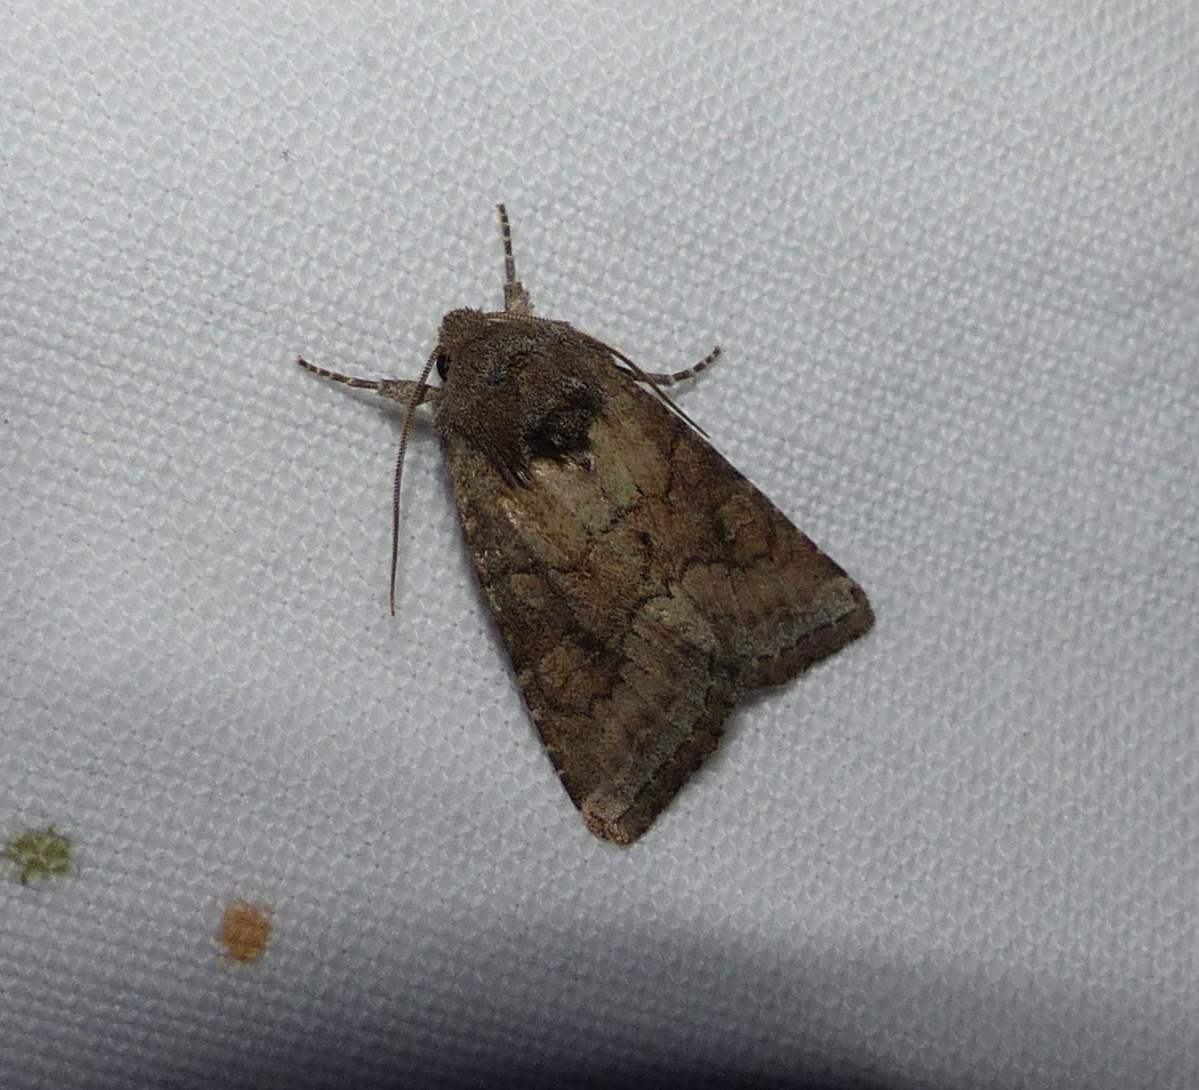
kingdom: Animalia
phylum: Arthropoda
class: Insecta
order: Lepidoptera
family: Noctuidae
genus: Lacinipolia
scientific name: Lacinipolia meditata
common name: Thinker moth
